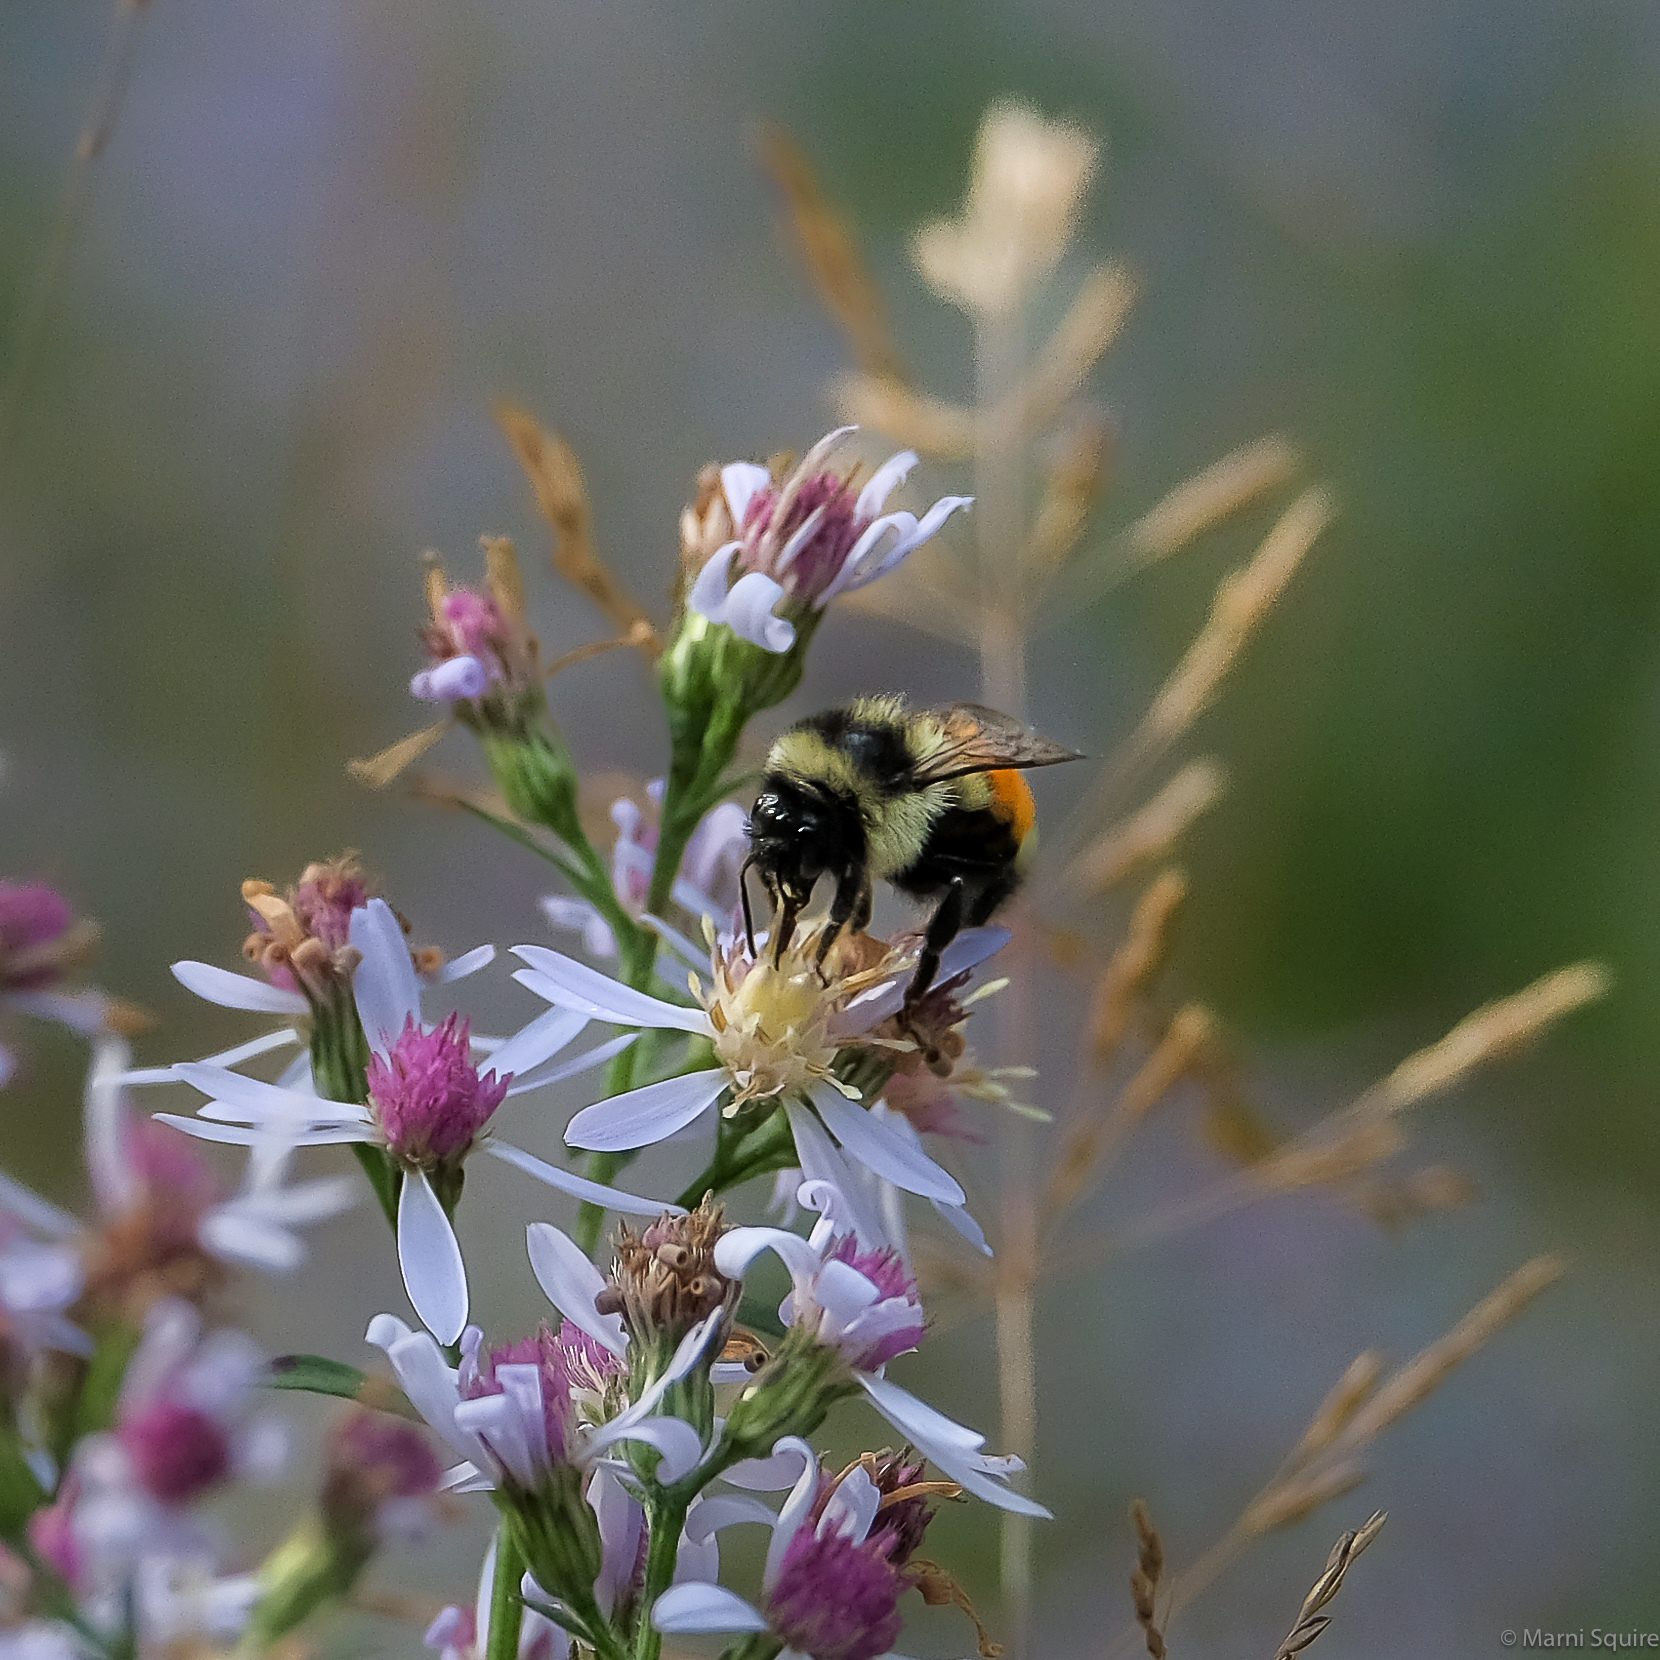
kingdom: Animalia
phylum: Arthropoda
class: Insecta
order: Hymenoptera
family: Apidae
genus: Bombus
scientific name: Bombus ternarius
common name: Tri-colored bumble bee
